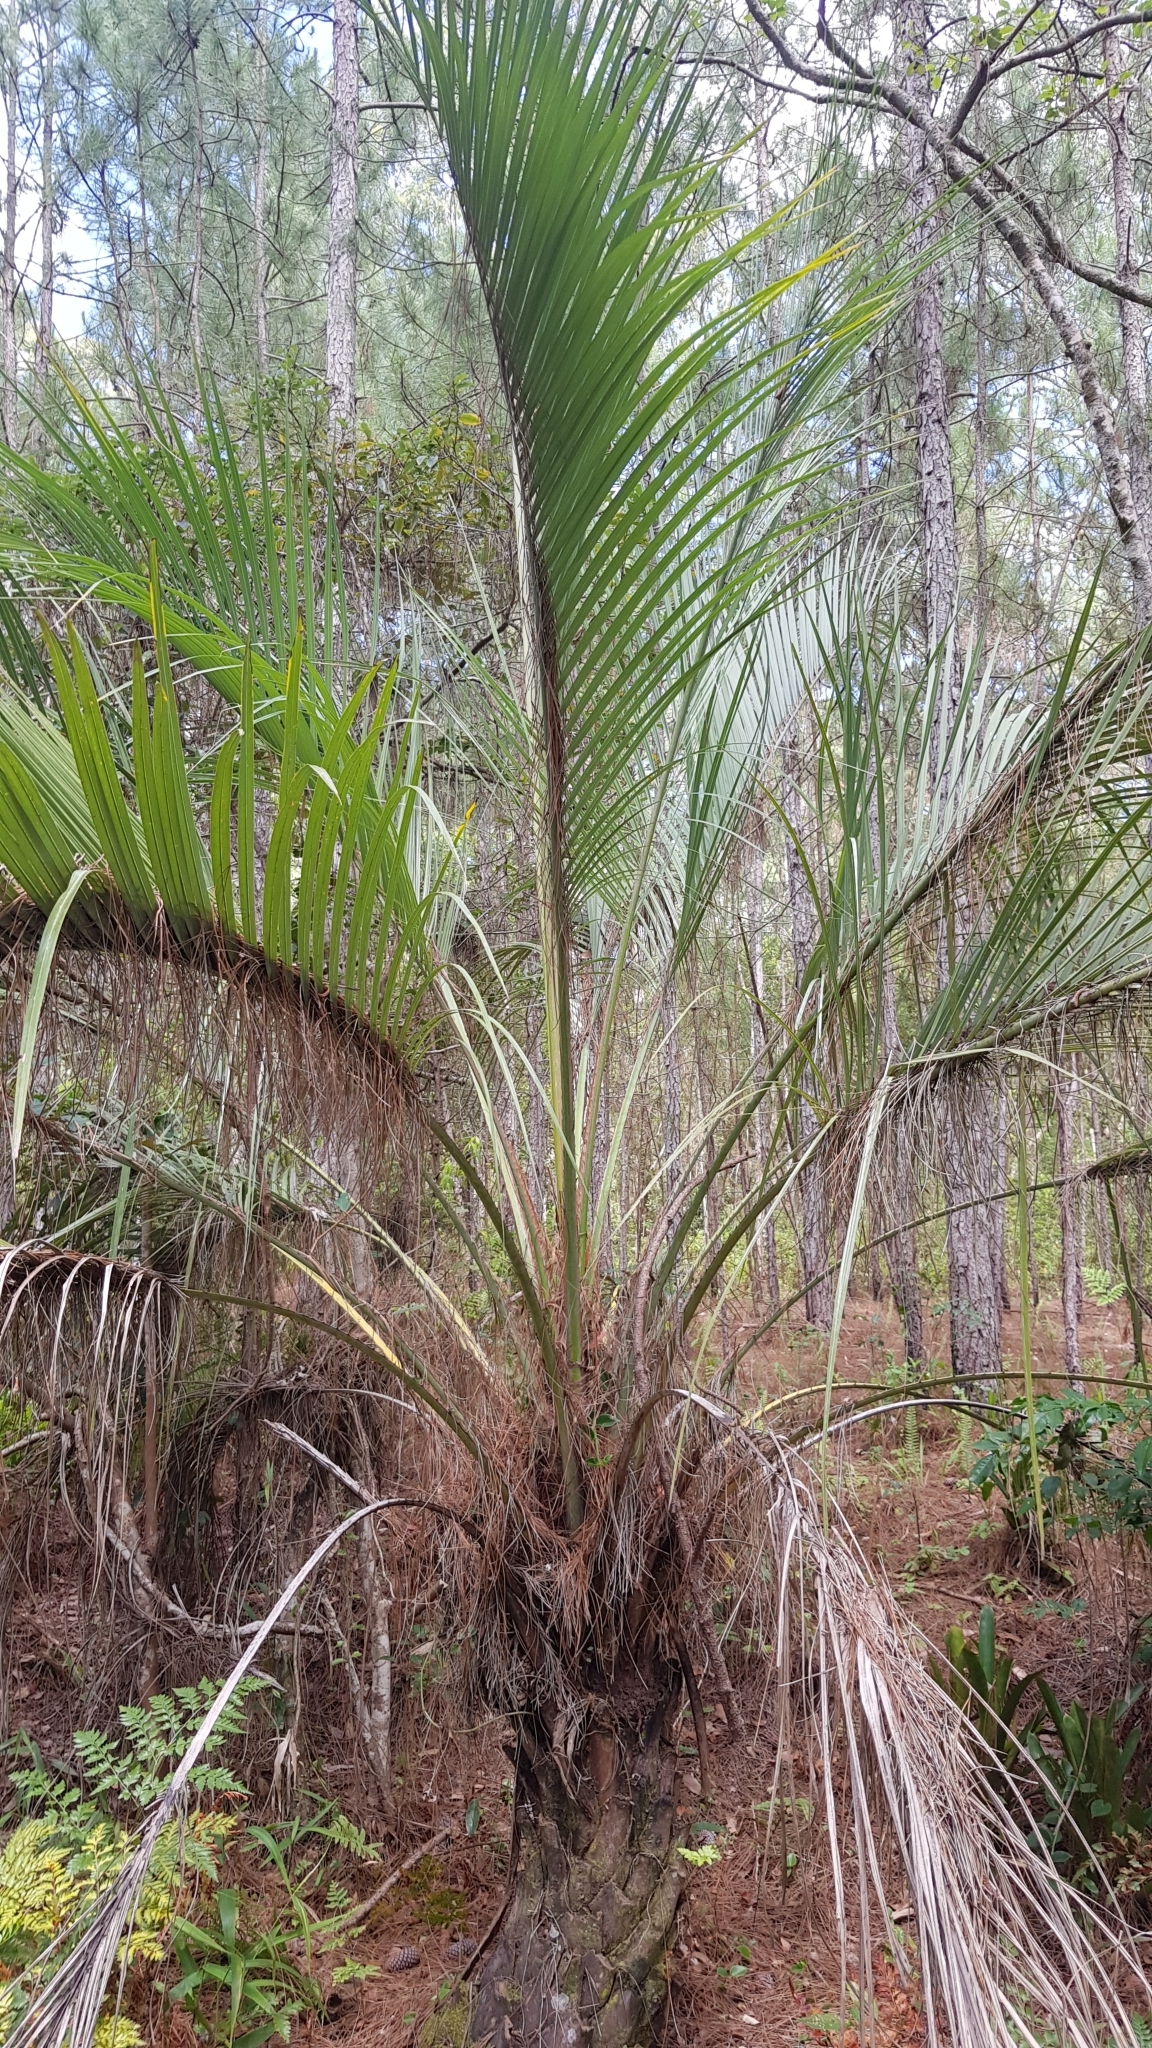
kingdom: Plantae
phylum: Tracheophyta
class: Liliopsida
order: Arecales
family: Arecaceae
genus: Butia
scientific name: Butia catarinensis
